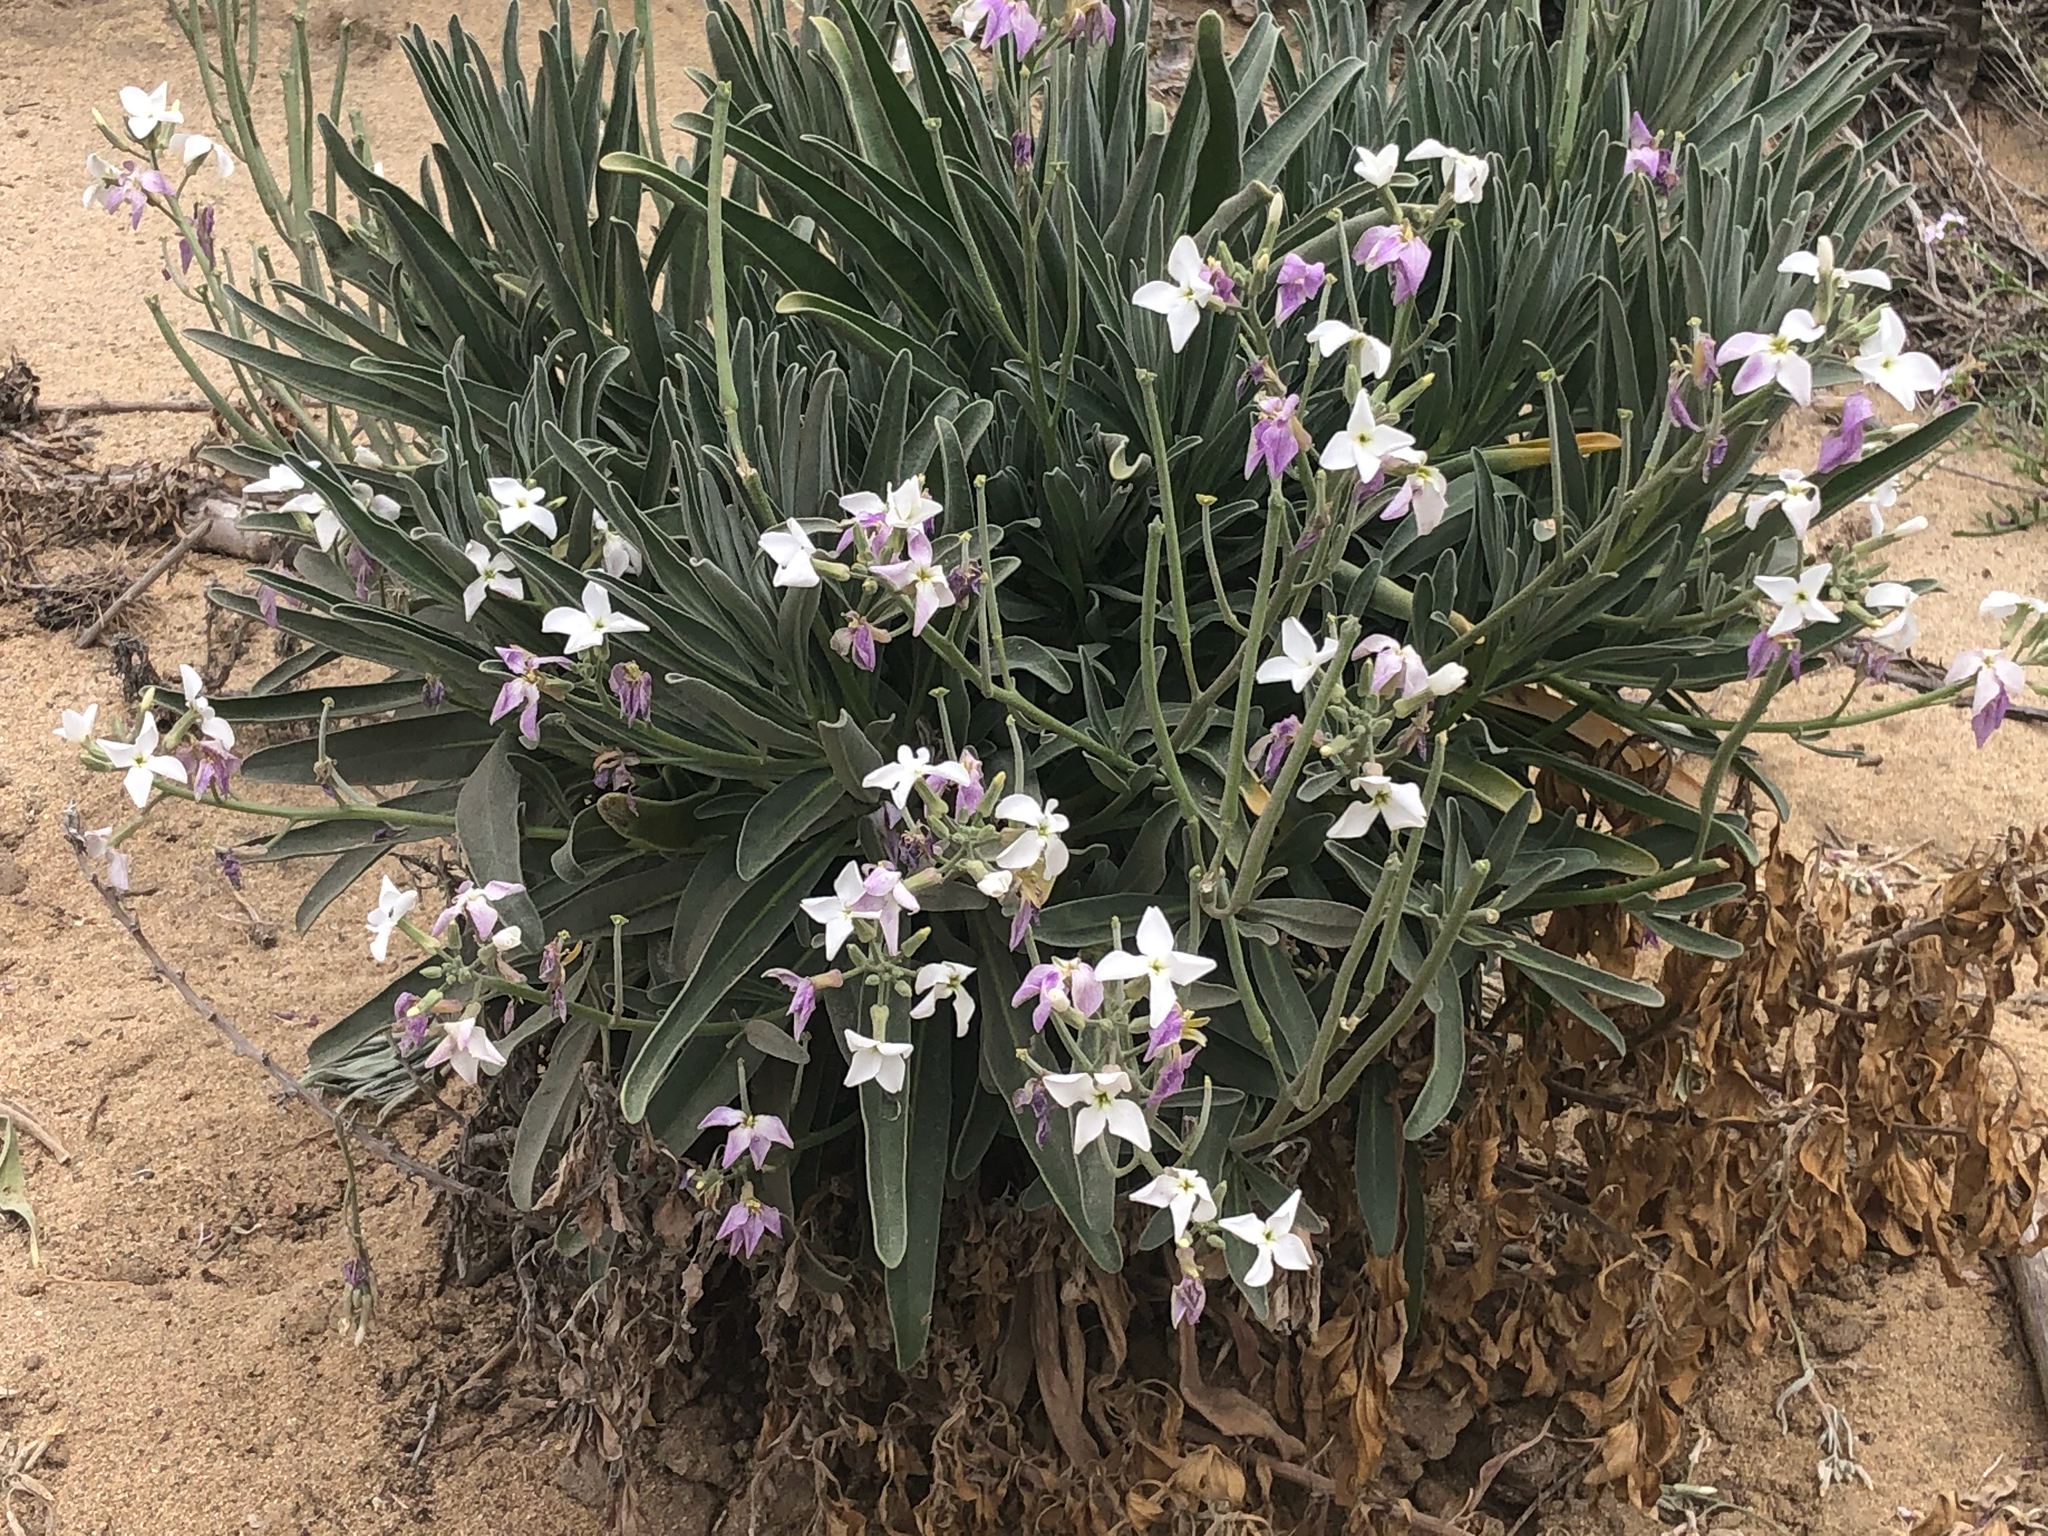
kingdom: Plantae
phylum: Tracheophyta
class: Magnoliopsida
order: Brassicales
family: Brassicaceae
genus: Matthiola
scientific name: Matthiola incana
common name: Hoary stock
